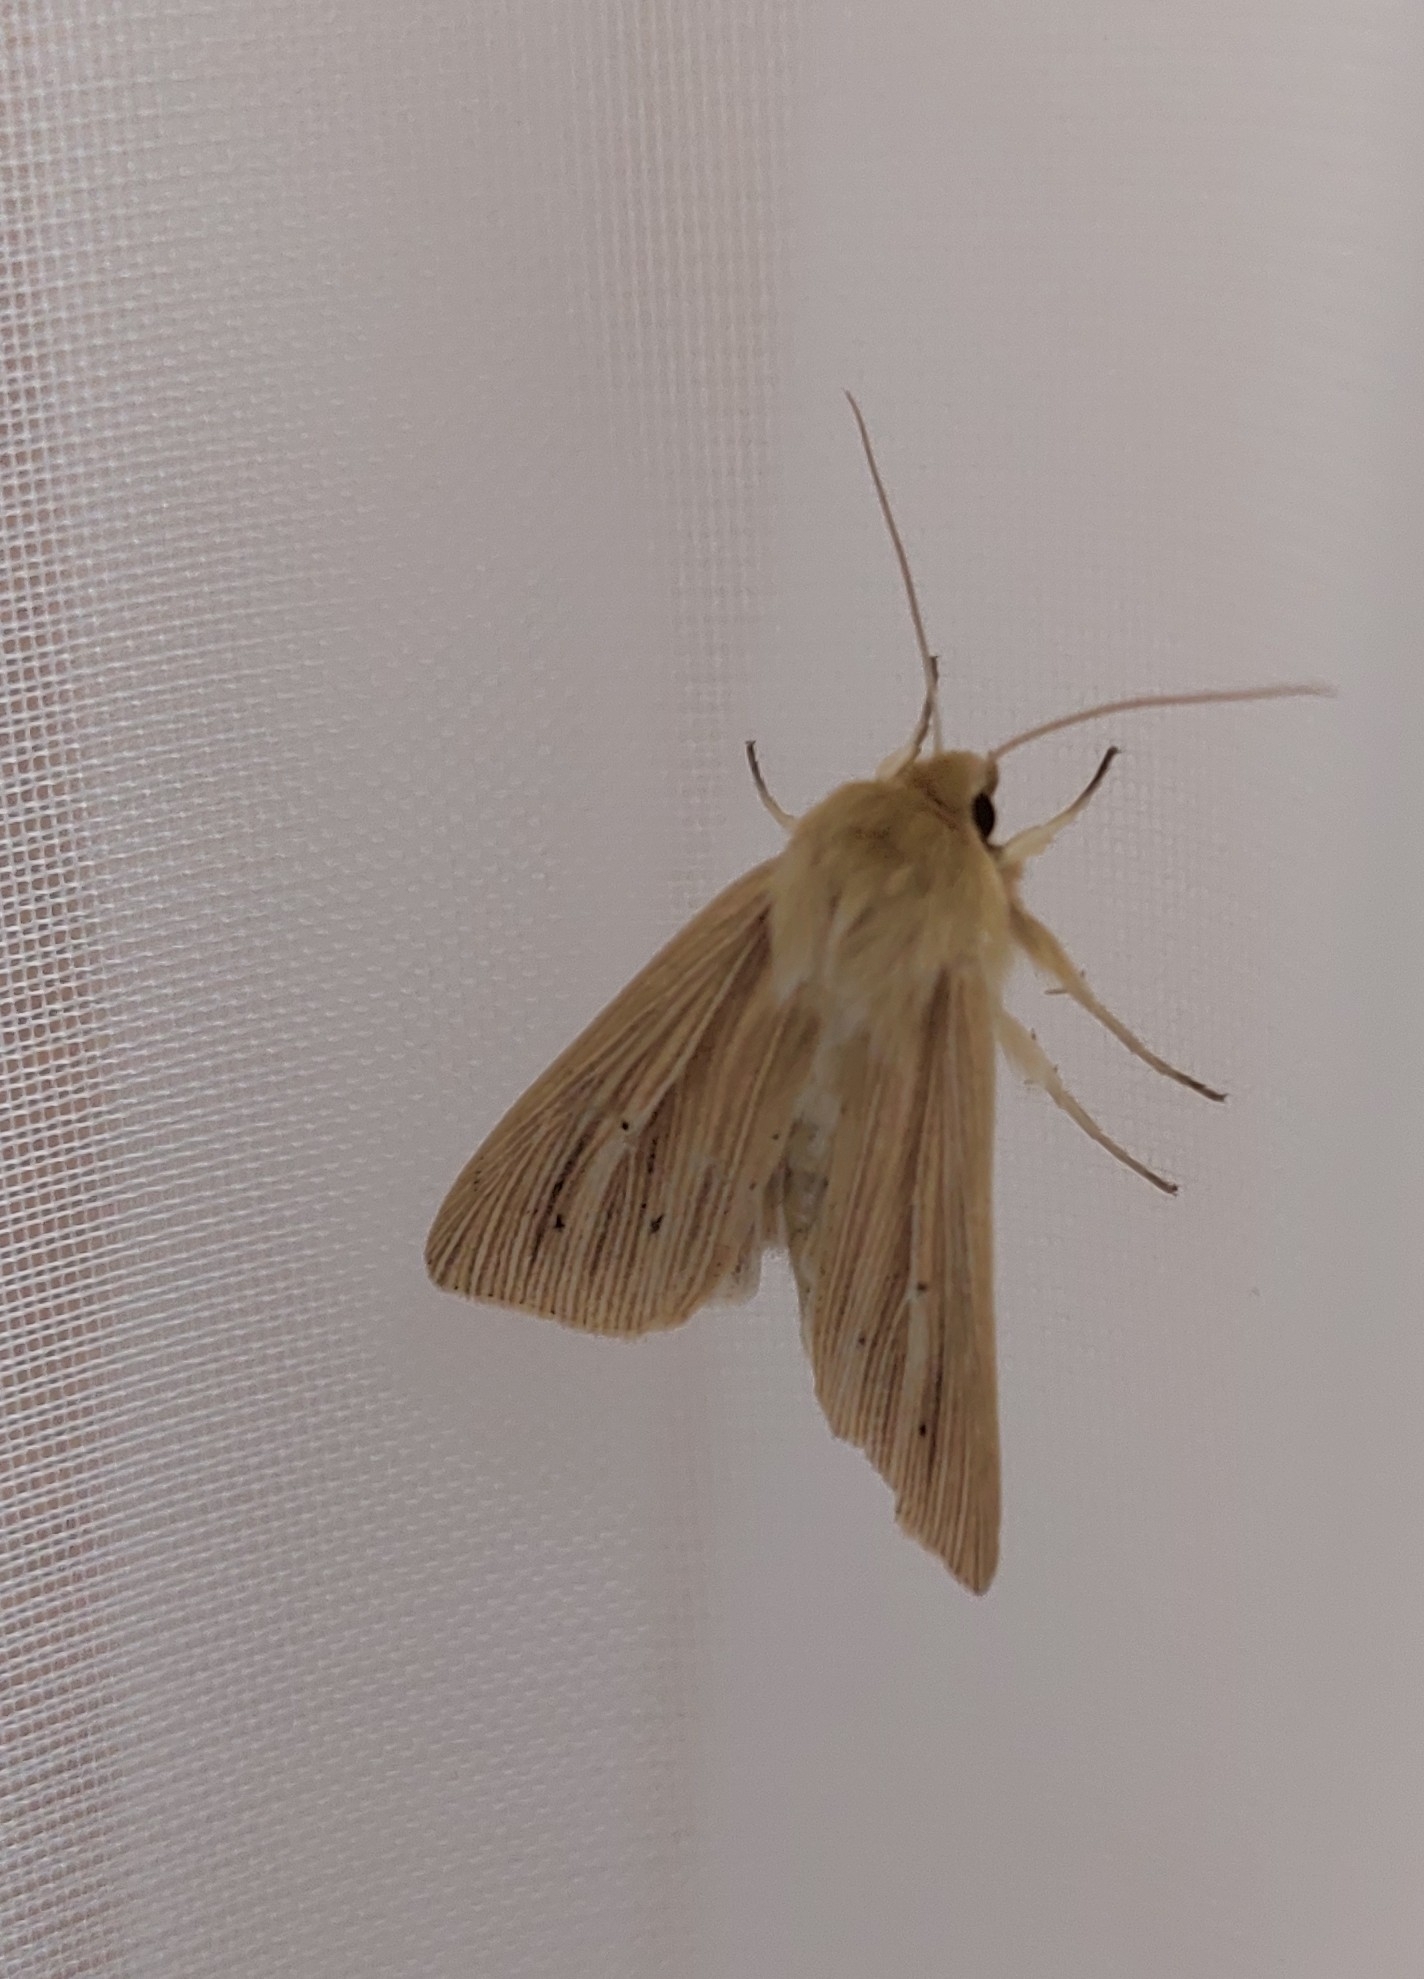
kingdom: Animalia
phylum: Arthropoda
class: Insecta
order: Lepidoptera
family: Noctuidae
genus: Mythimna
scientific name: Mythimna pallens
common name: Common wainscot
